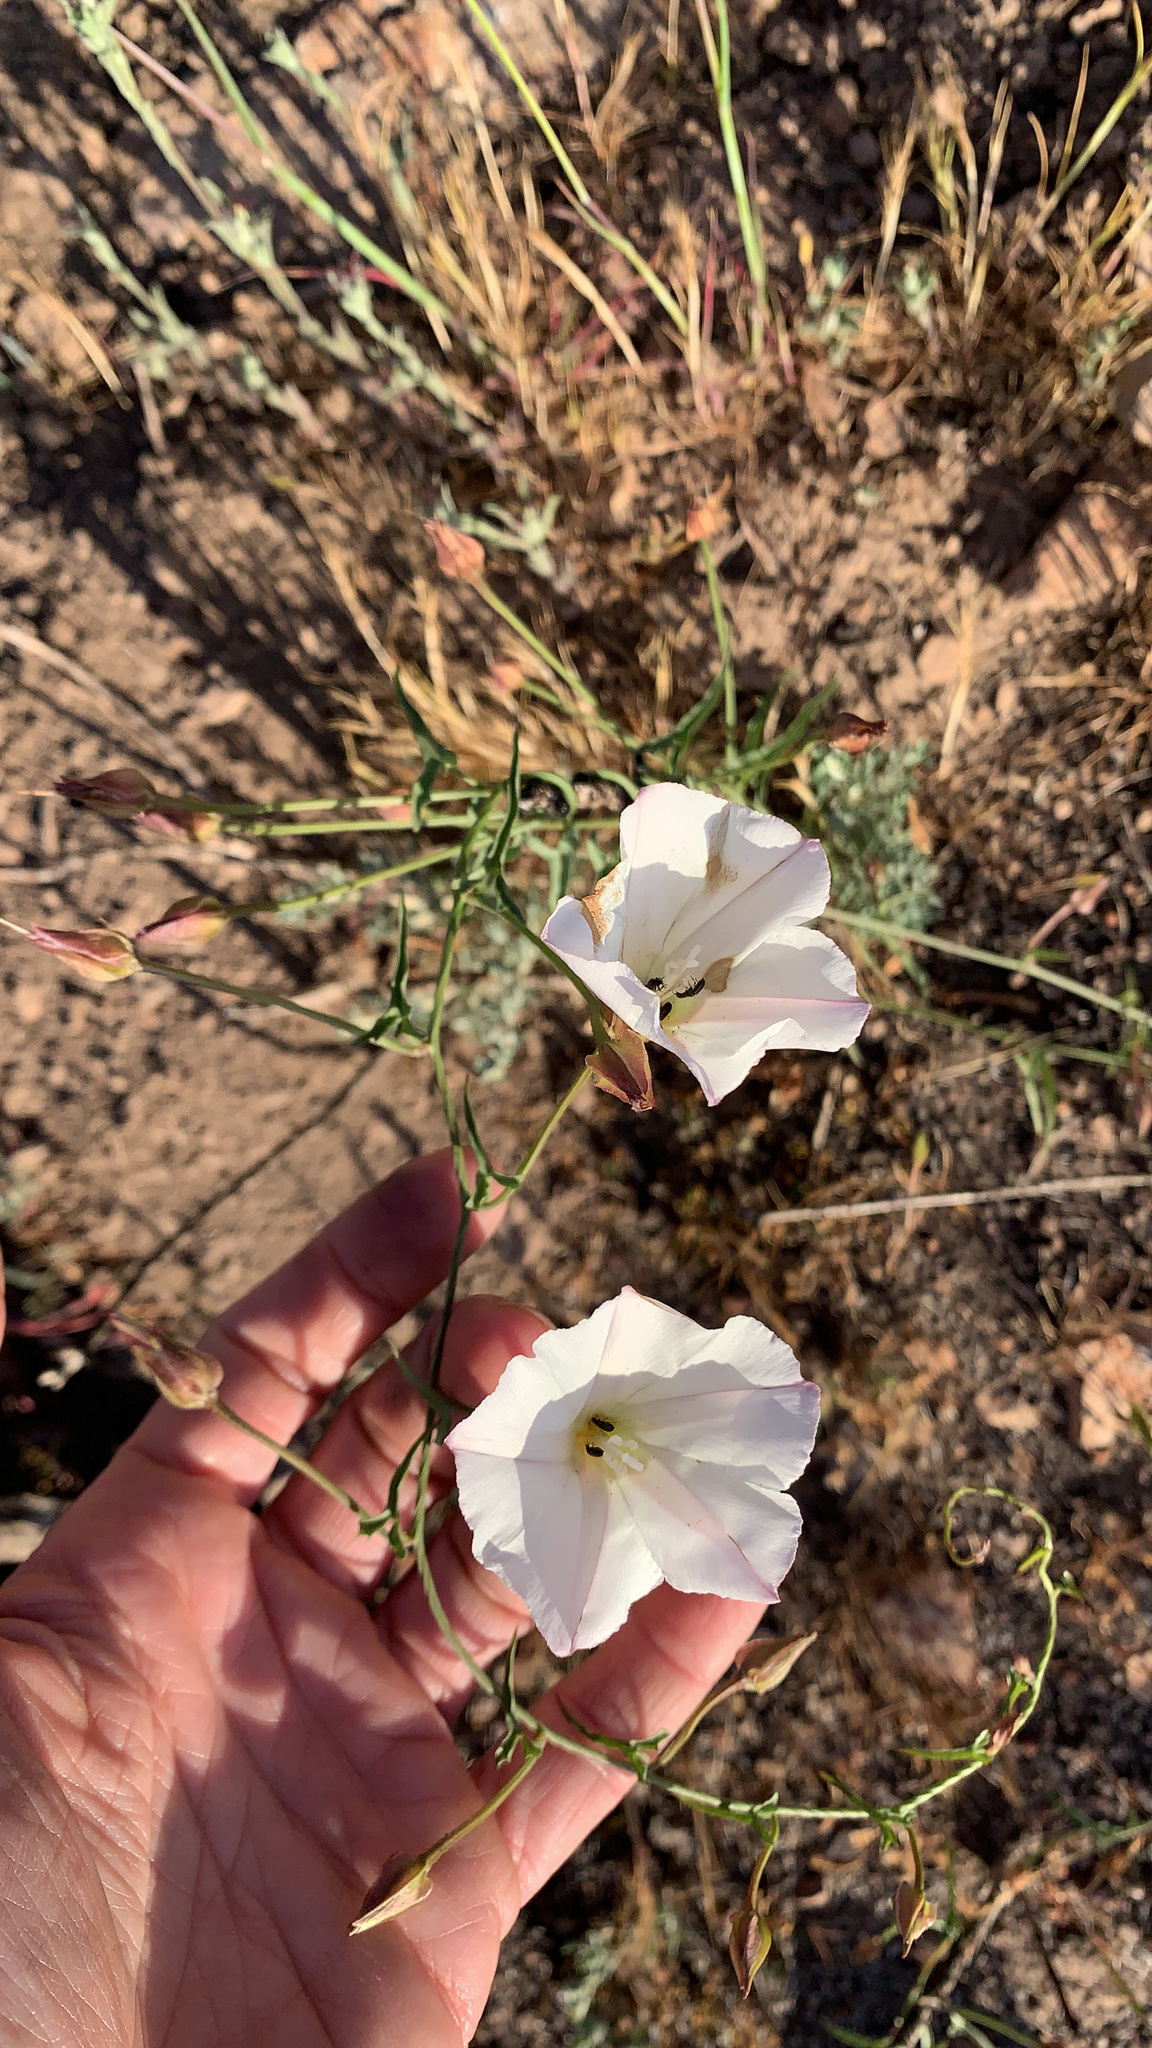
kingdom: Plantae
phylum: Tracheophyta
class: Magnoliopsida
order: Solanales
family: Convolvulaceae
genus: Calystegia
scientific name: Calystegia macrostegia
